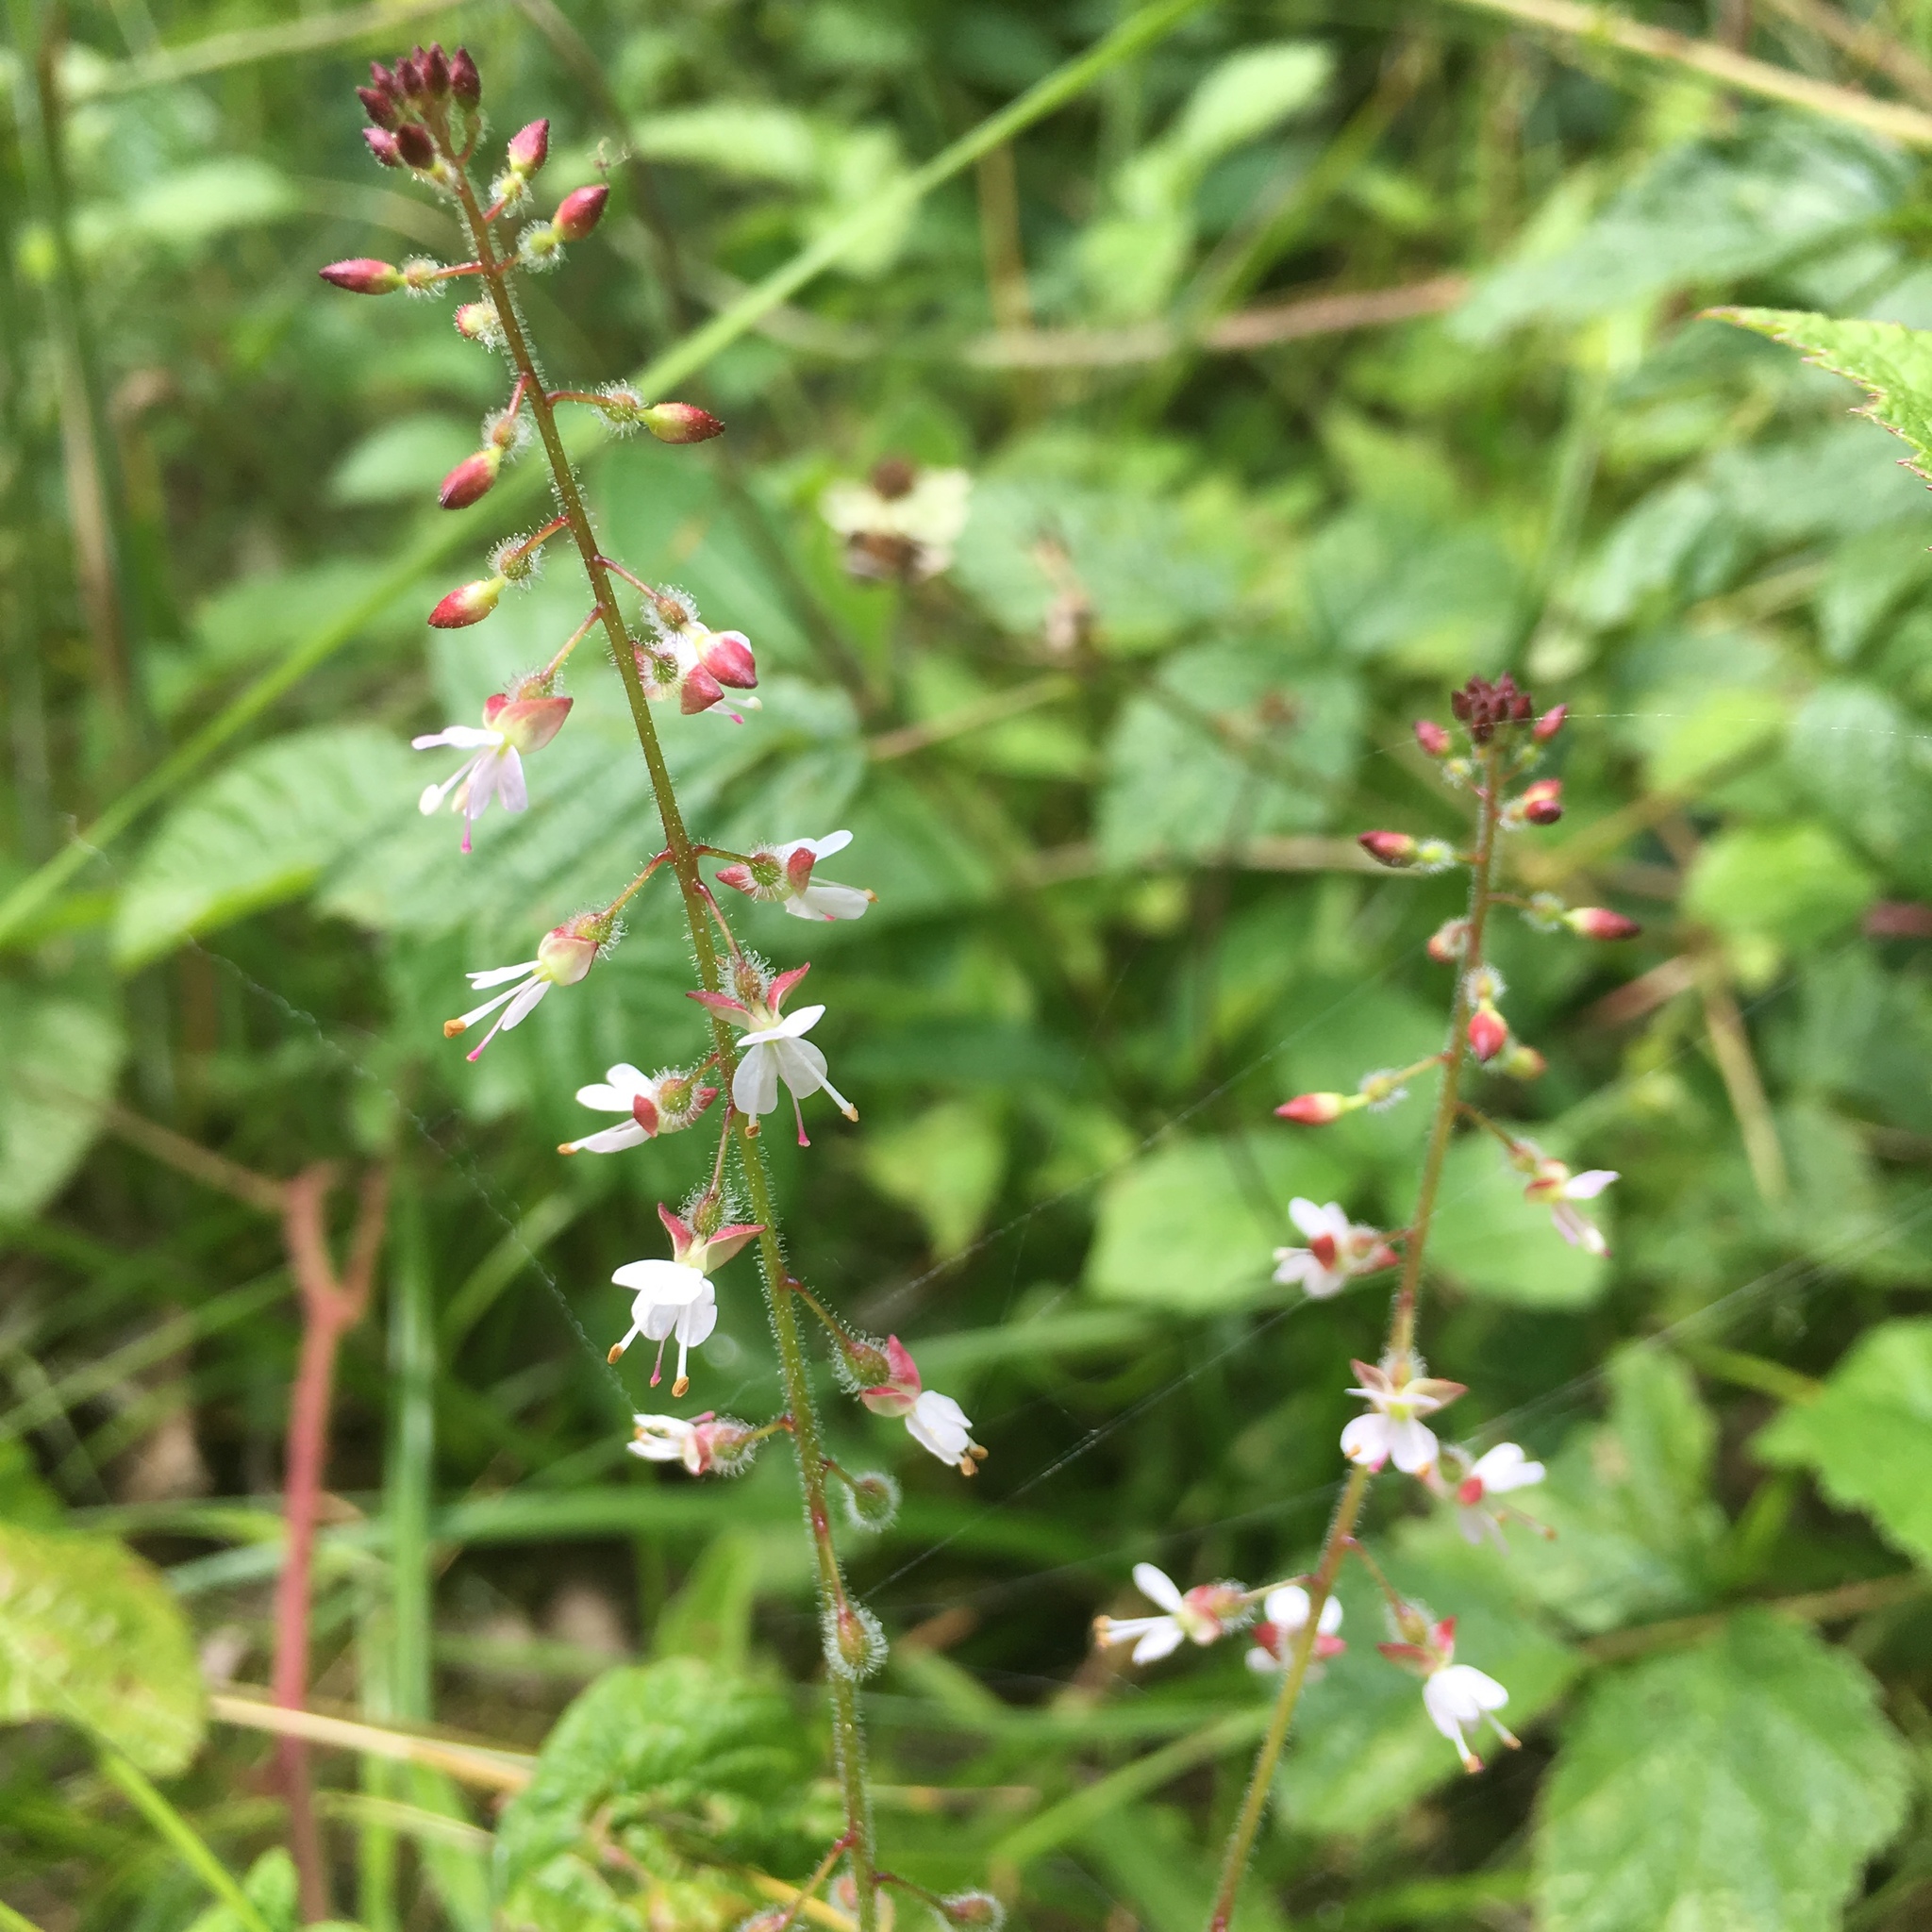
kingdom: Plantae
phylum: Tracheophyta
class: Magnoliopsida
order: Myrtales
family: Onagraceae
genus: Circaea
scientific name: Circaea lutetiana
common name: Enchanter's-nightshade
